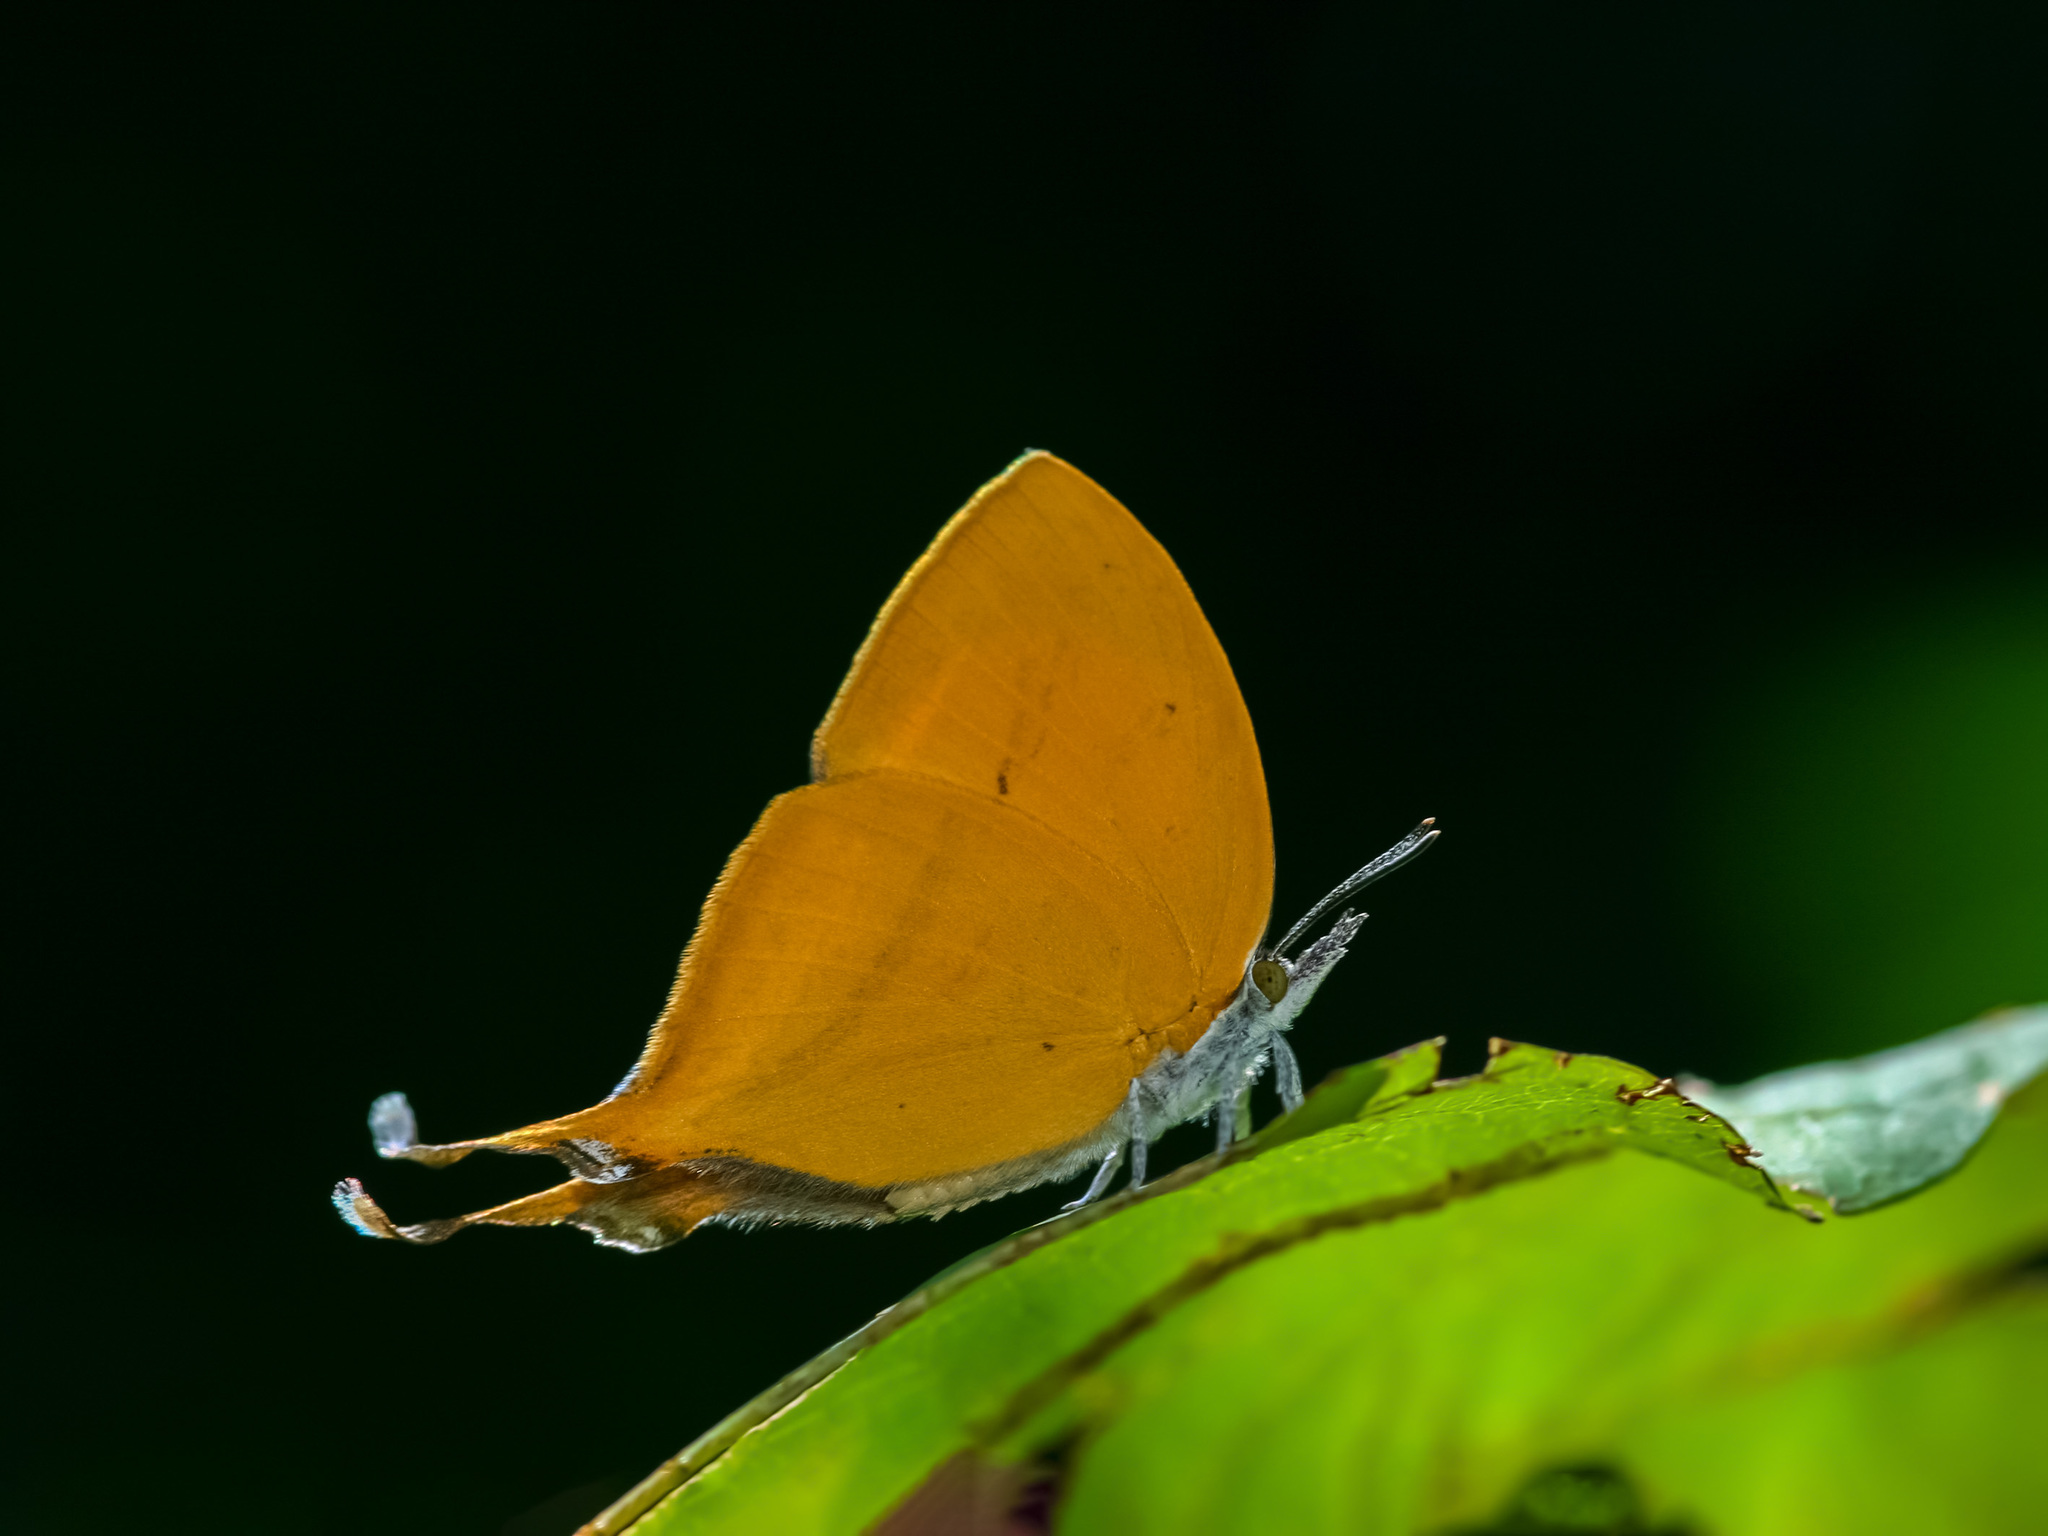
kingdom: Animalia
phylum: Arthropoda
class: Insecta
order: Lepidoptera
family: Lycaenidae
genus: Loxura
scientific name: Loxura atymnus
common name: Common yamfly
